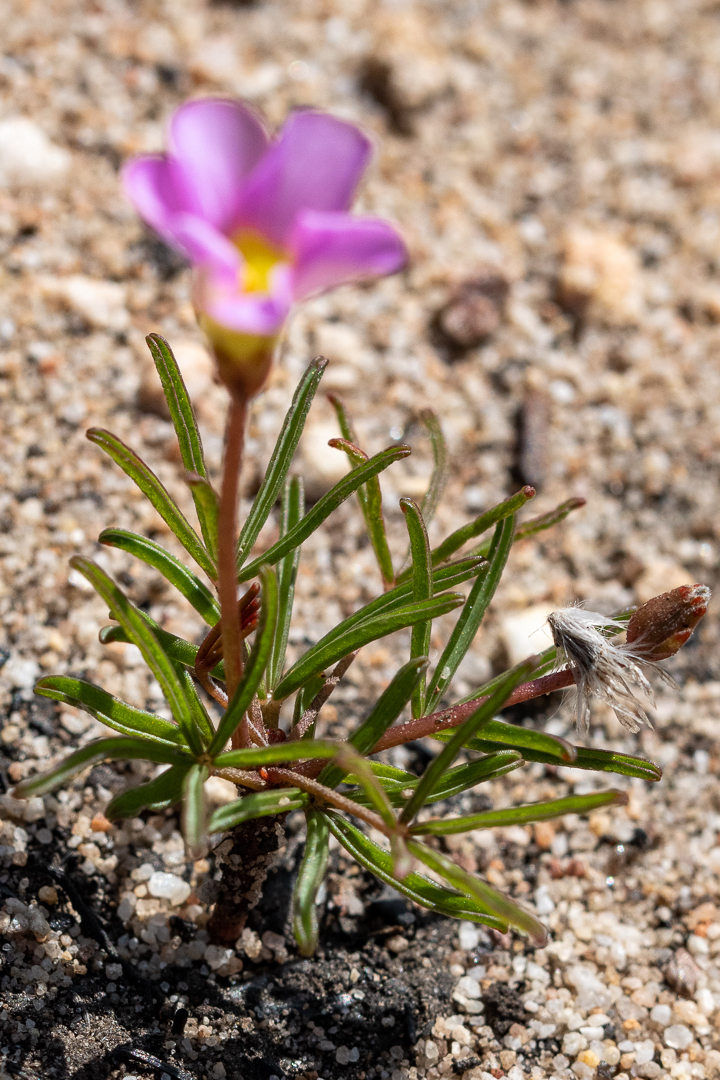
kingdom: Plantae
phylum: Tracheophyta
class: Magnoliopsida
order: Oxalidales
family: Oxalidaceae
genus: Oxalis
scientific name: Oxalis polyphylla
